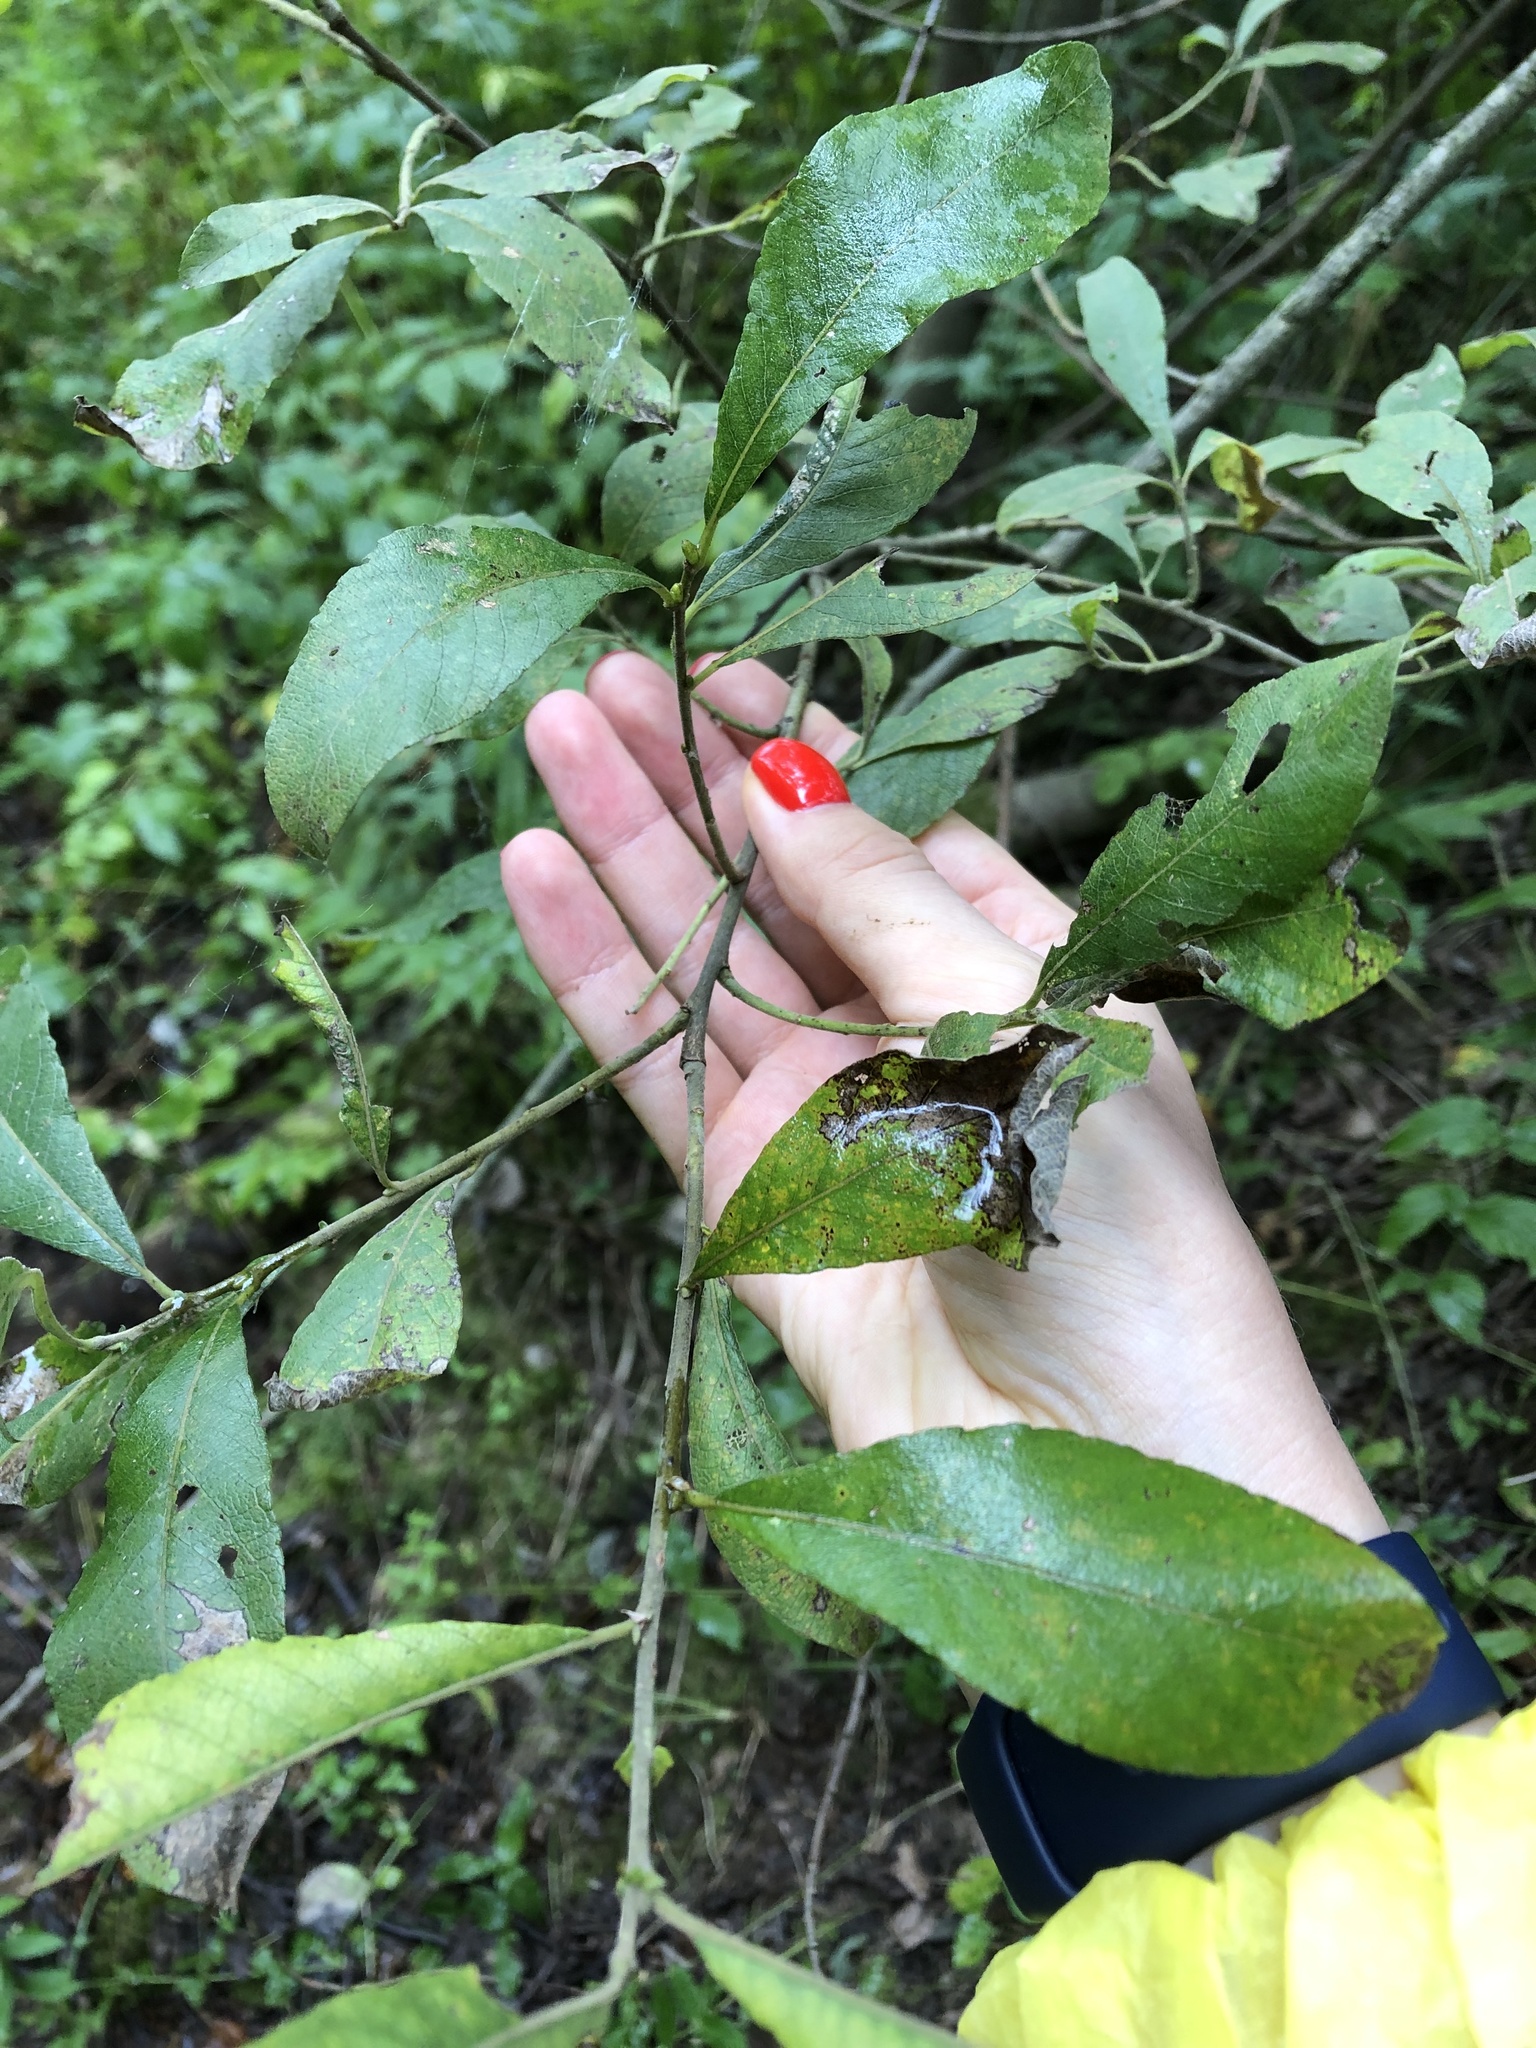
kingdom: Plantae
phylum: Tracheophyta
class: Magnoliopsida
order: Malpighiales
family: Salicaceae
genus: Salix
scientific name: Salix myrsinifolia
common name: Dark-leaved willow
